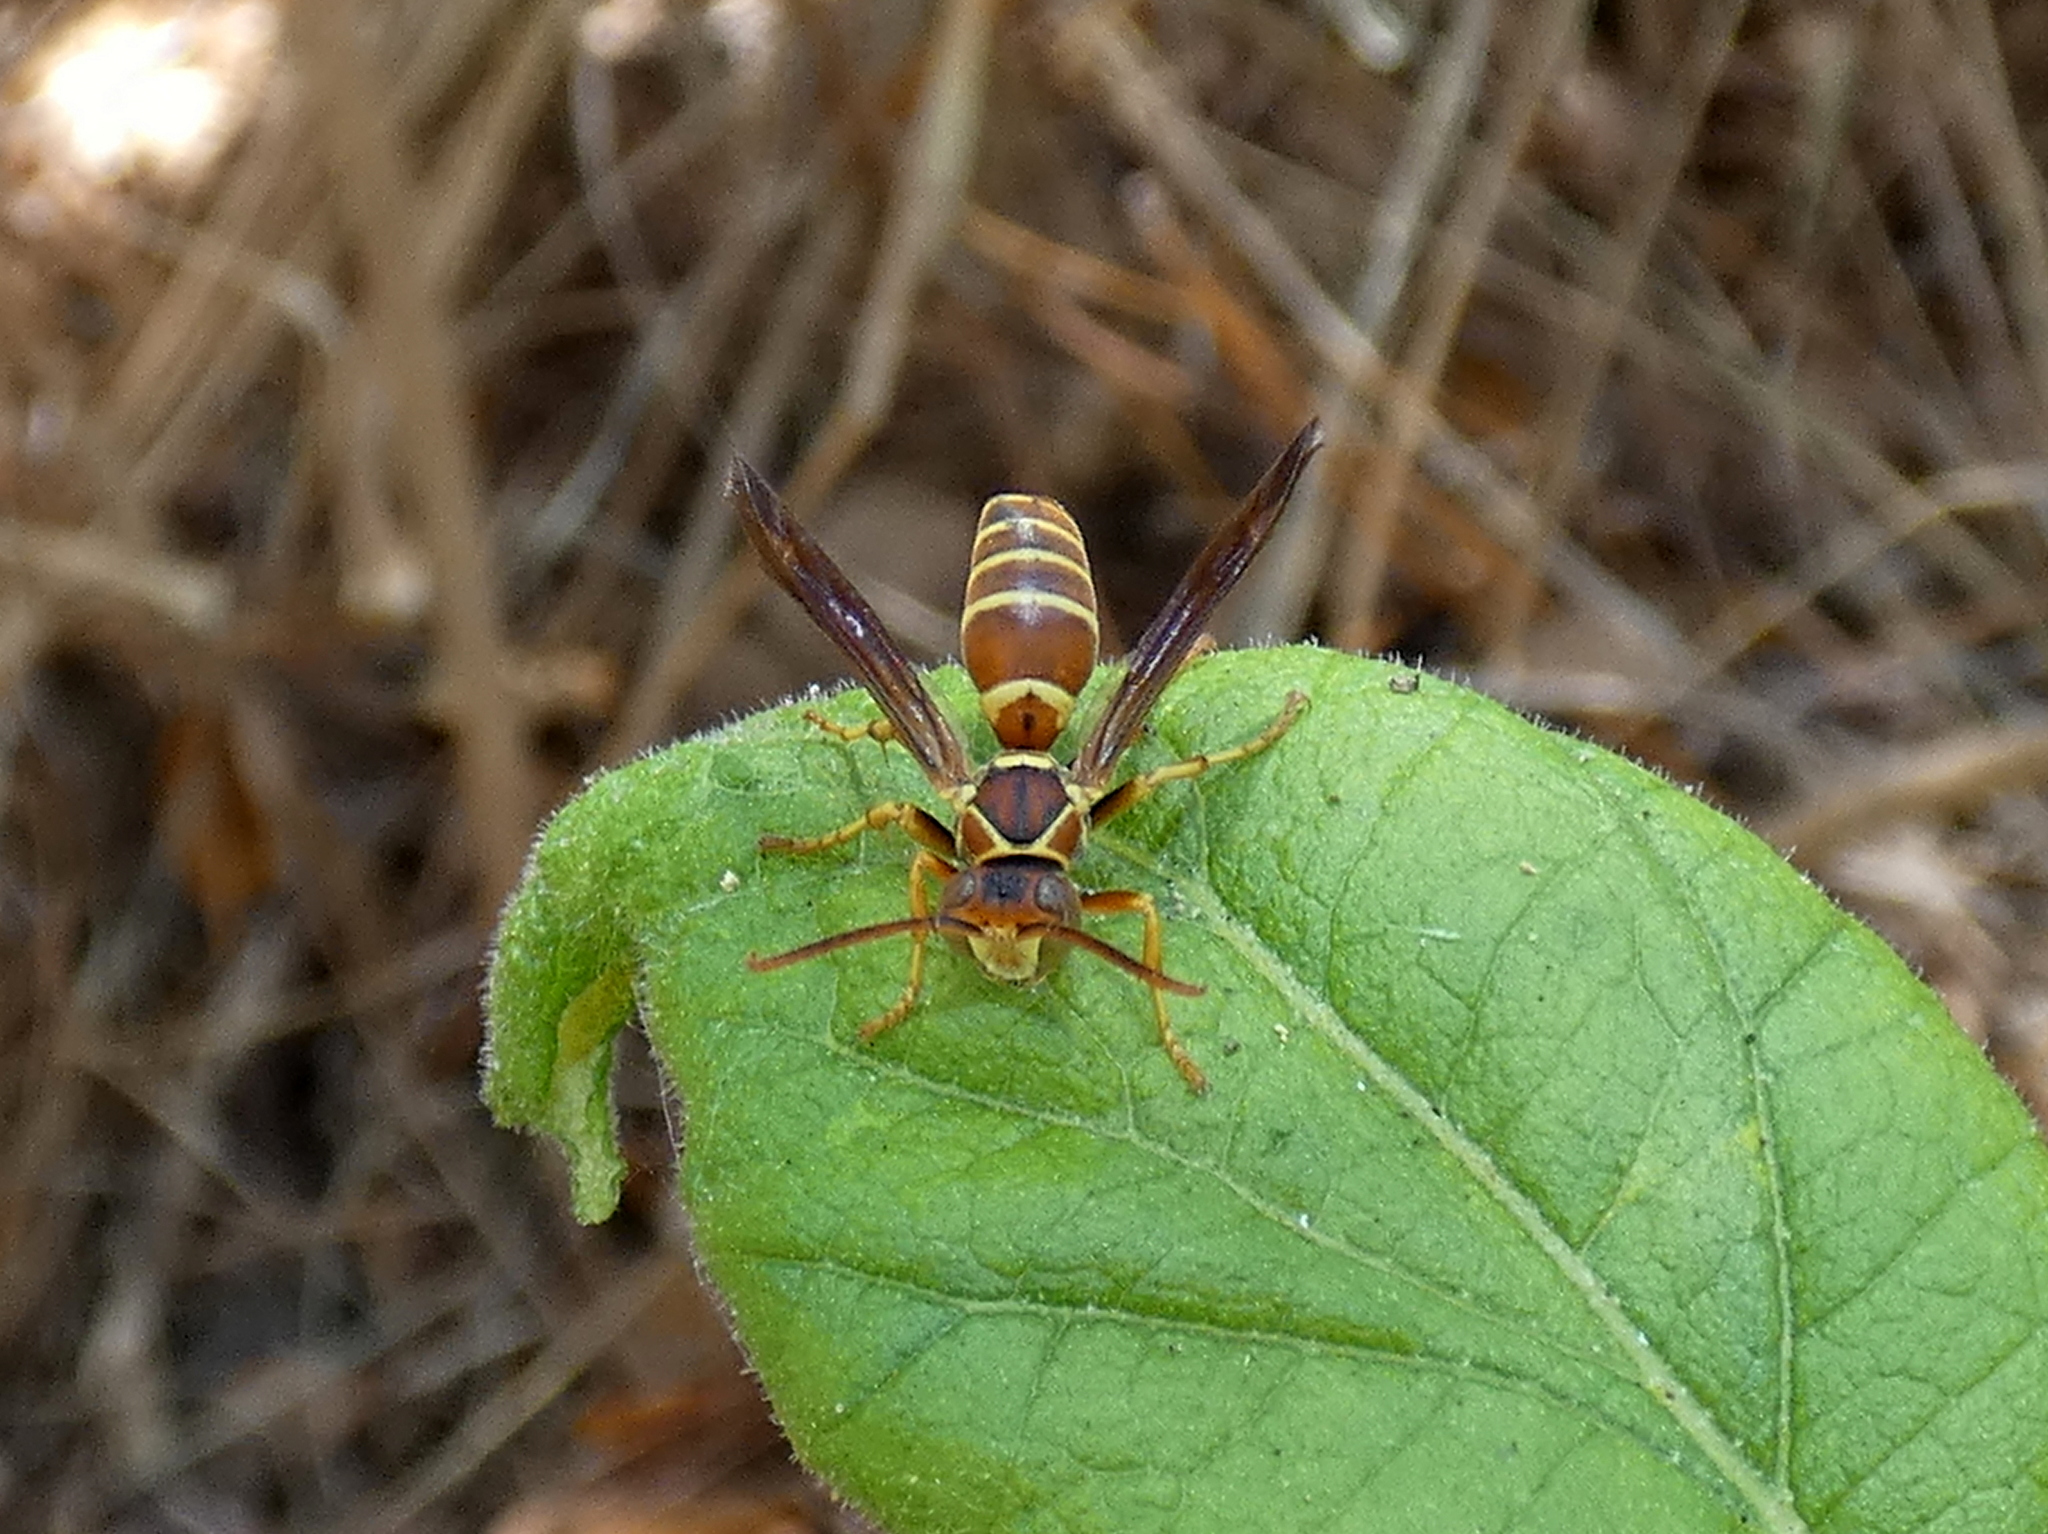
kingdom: Animalia
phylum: Arthropoda
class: Insecta
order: Hymenoptera
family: Eumenidae
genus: Polistes
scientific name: Polistes dorsalis
